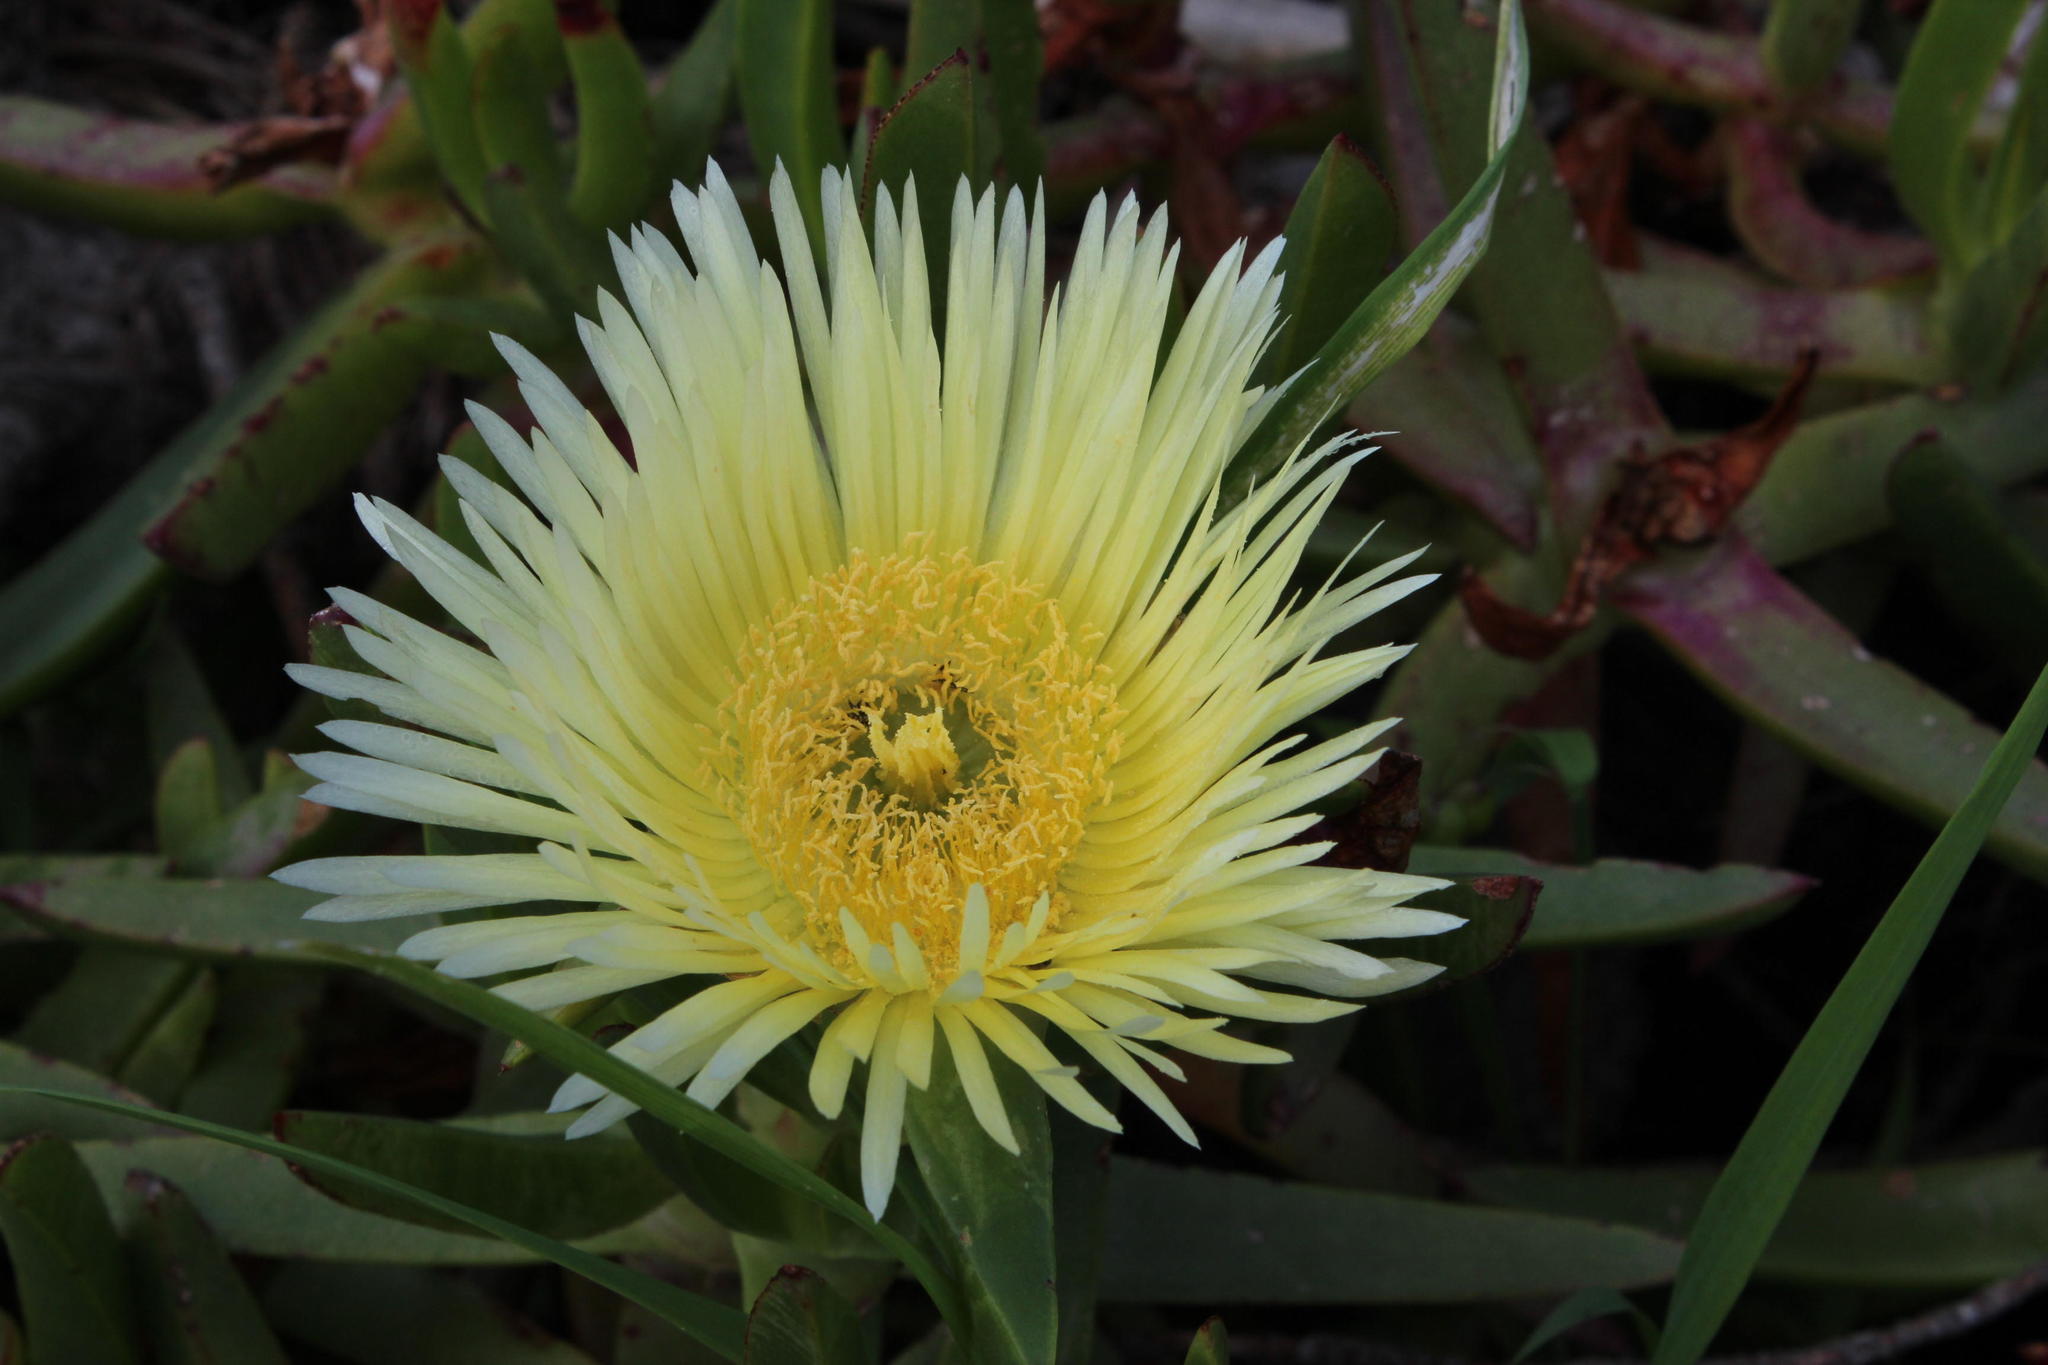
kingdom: Plantae
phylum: Tracheophyta
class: Magnoliopsida
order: Caryophyllales
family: Aizoaceae
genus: Carpobrotus
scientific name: Carpobrotus edulis
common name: Hottentot-fig
